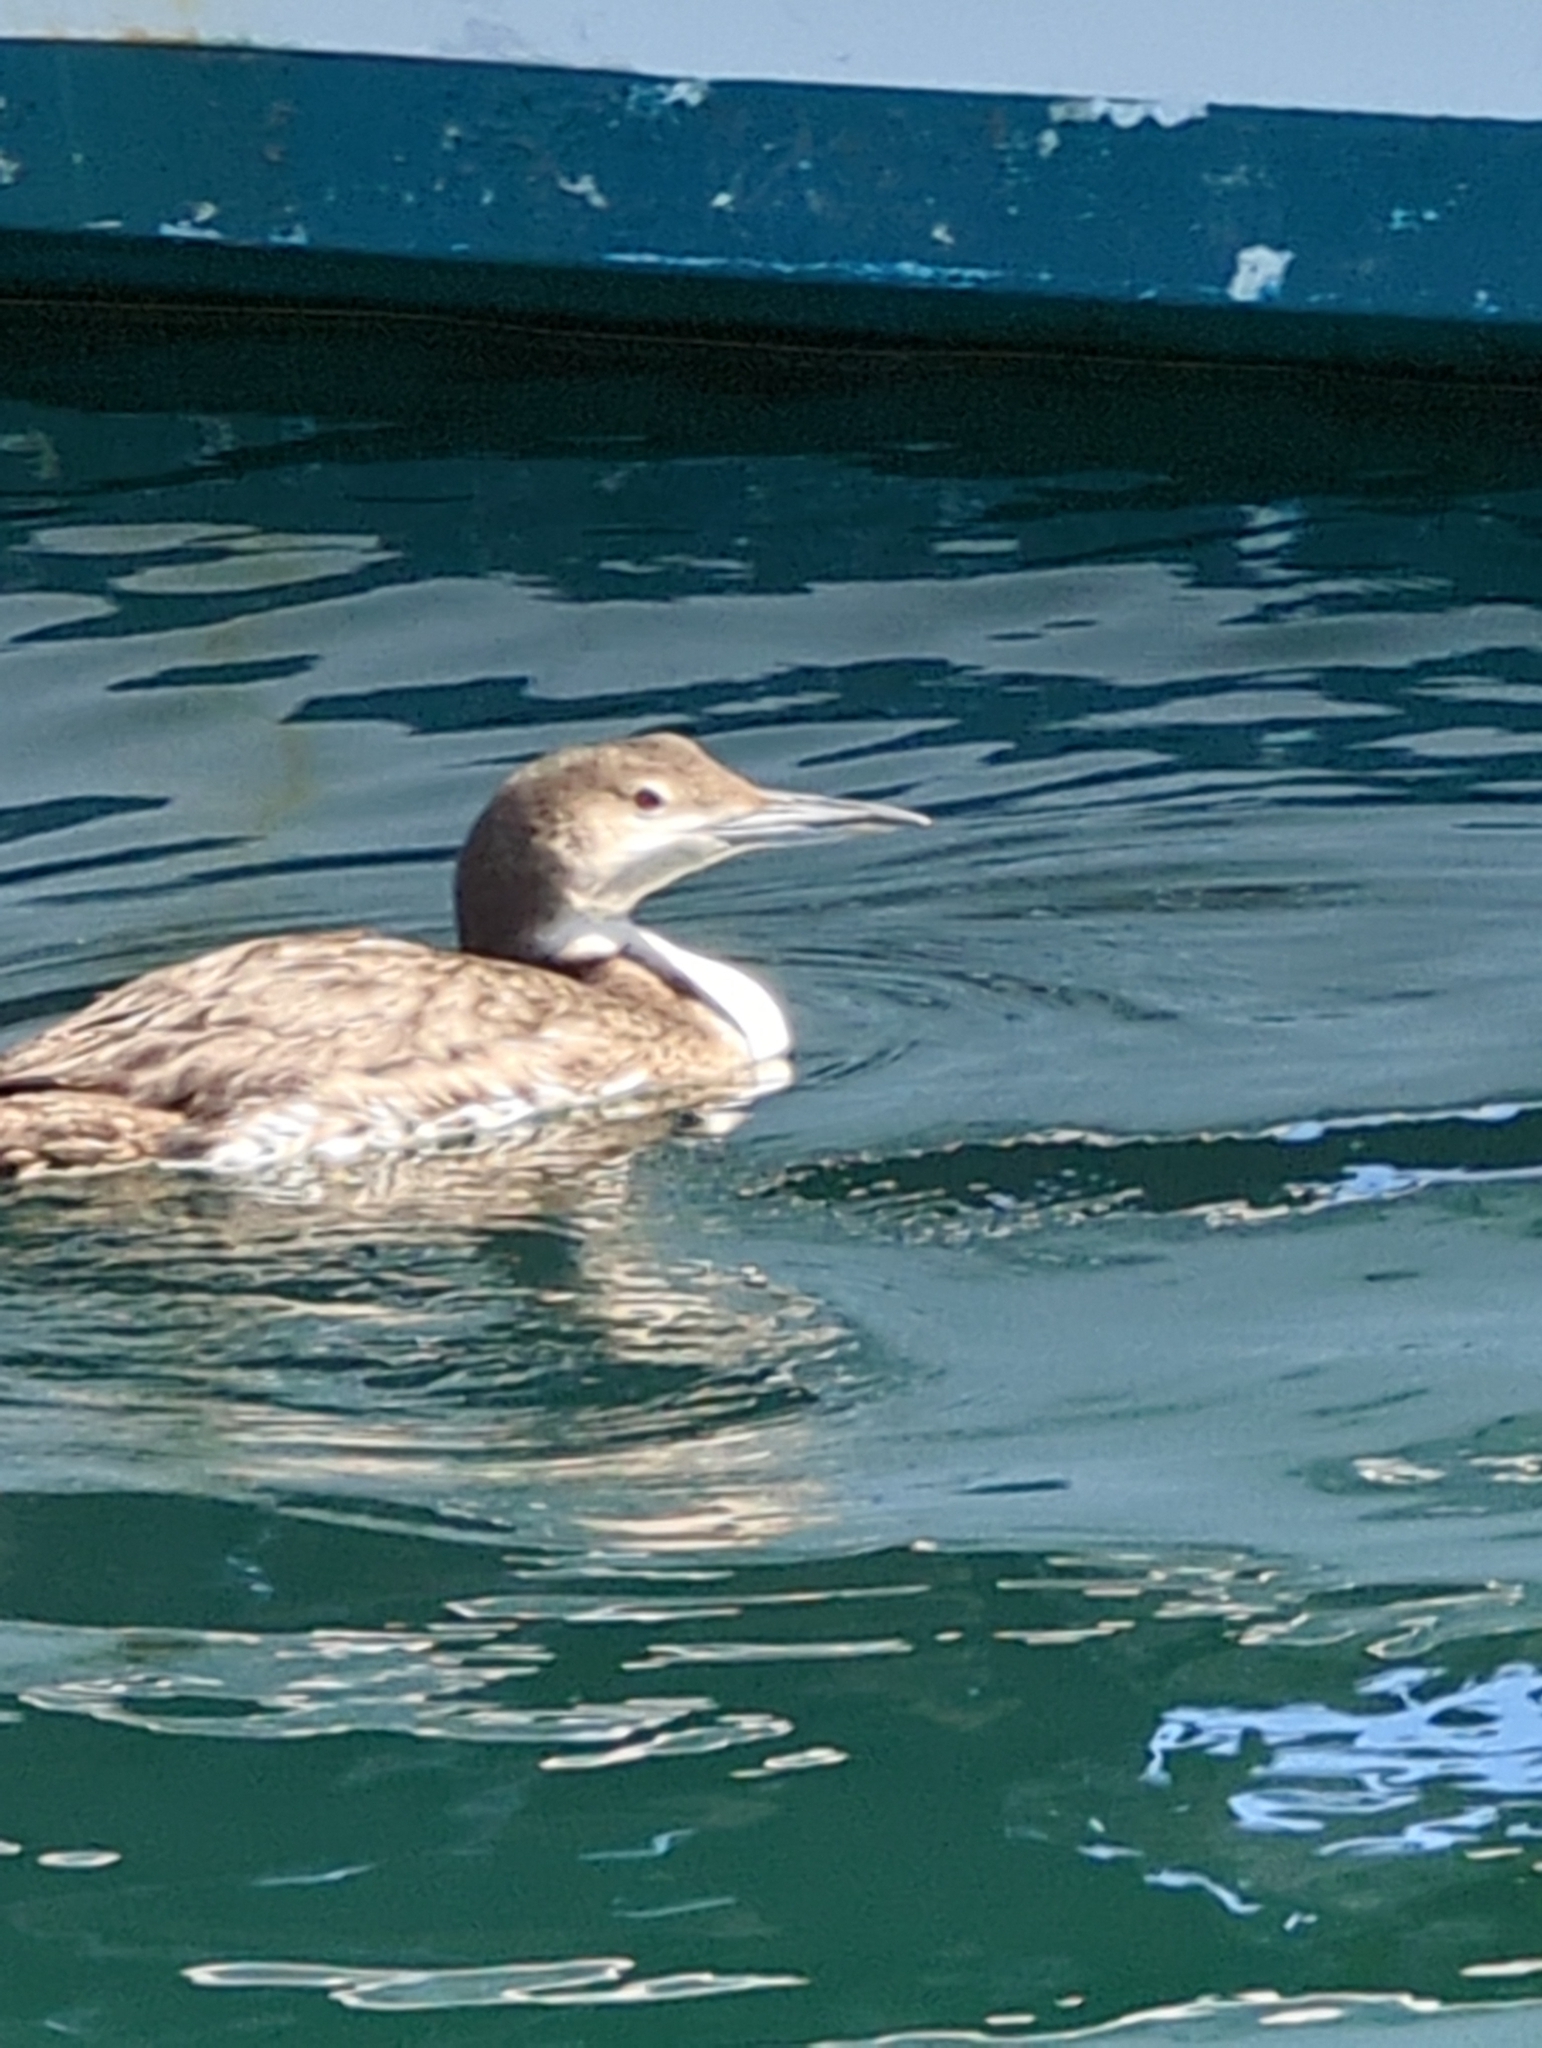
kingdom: Animalia
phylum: Chordata
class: Aves
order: Gaviiformes
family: Gaviidae
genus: Gavia
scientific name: Gavia immer
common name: Common loon
